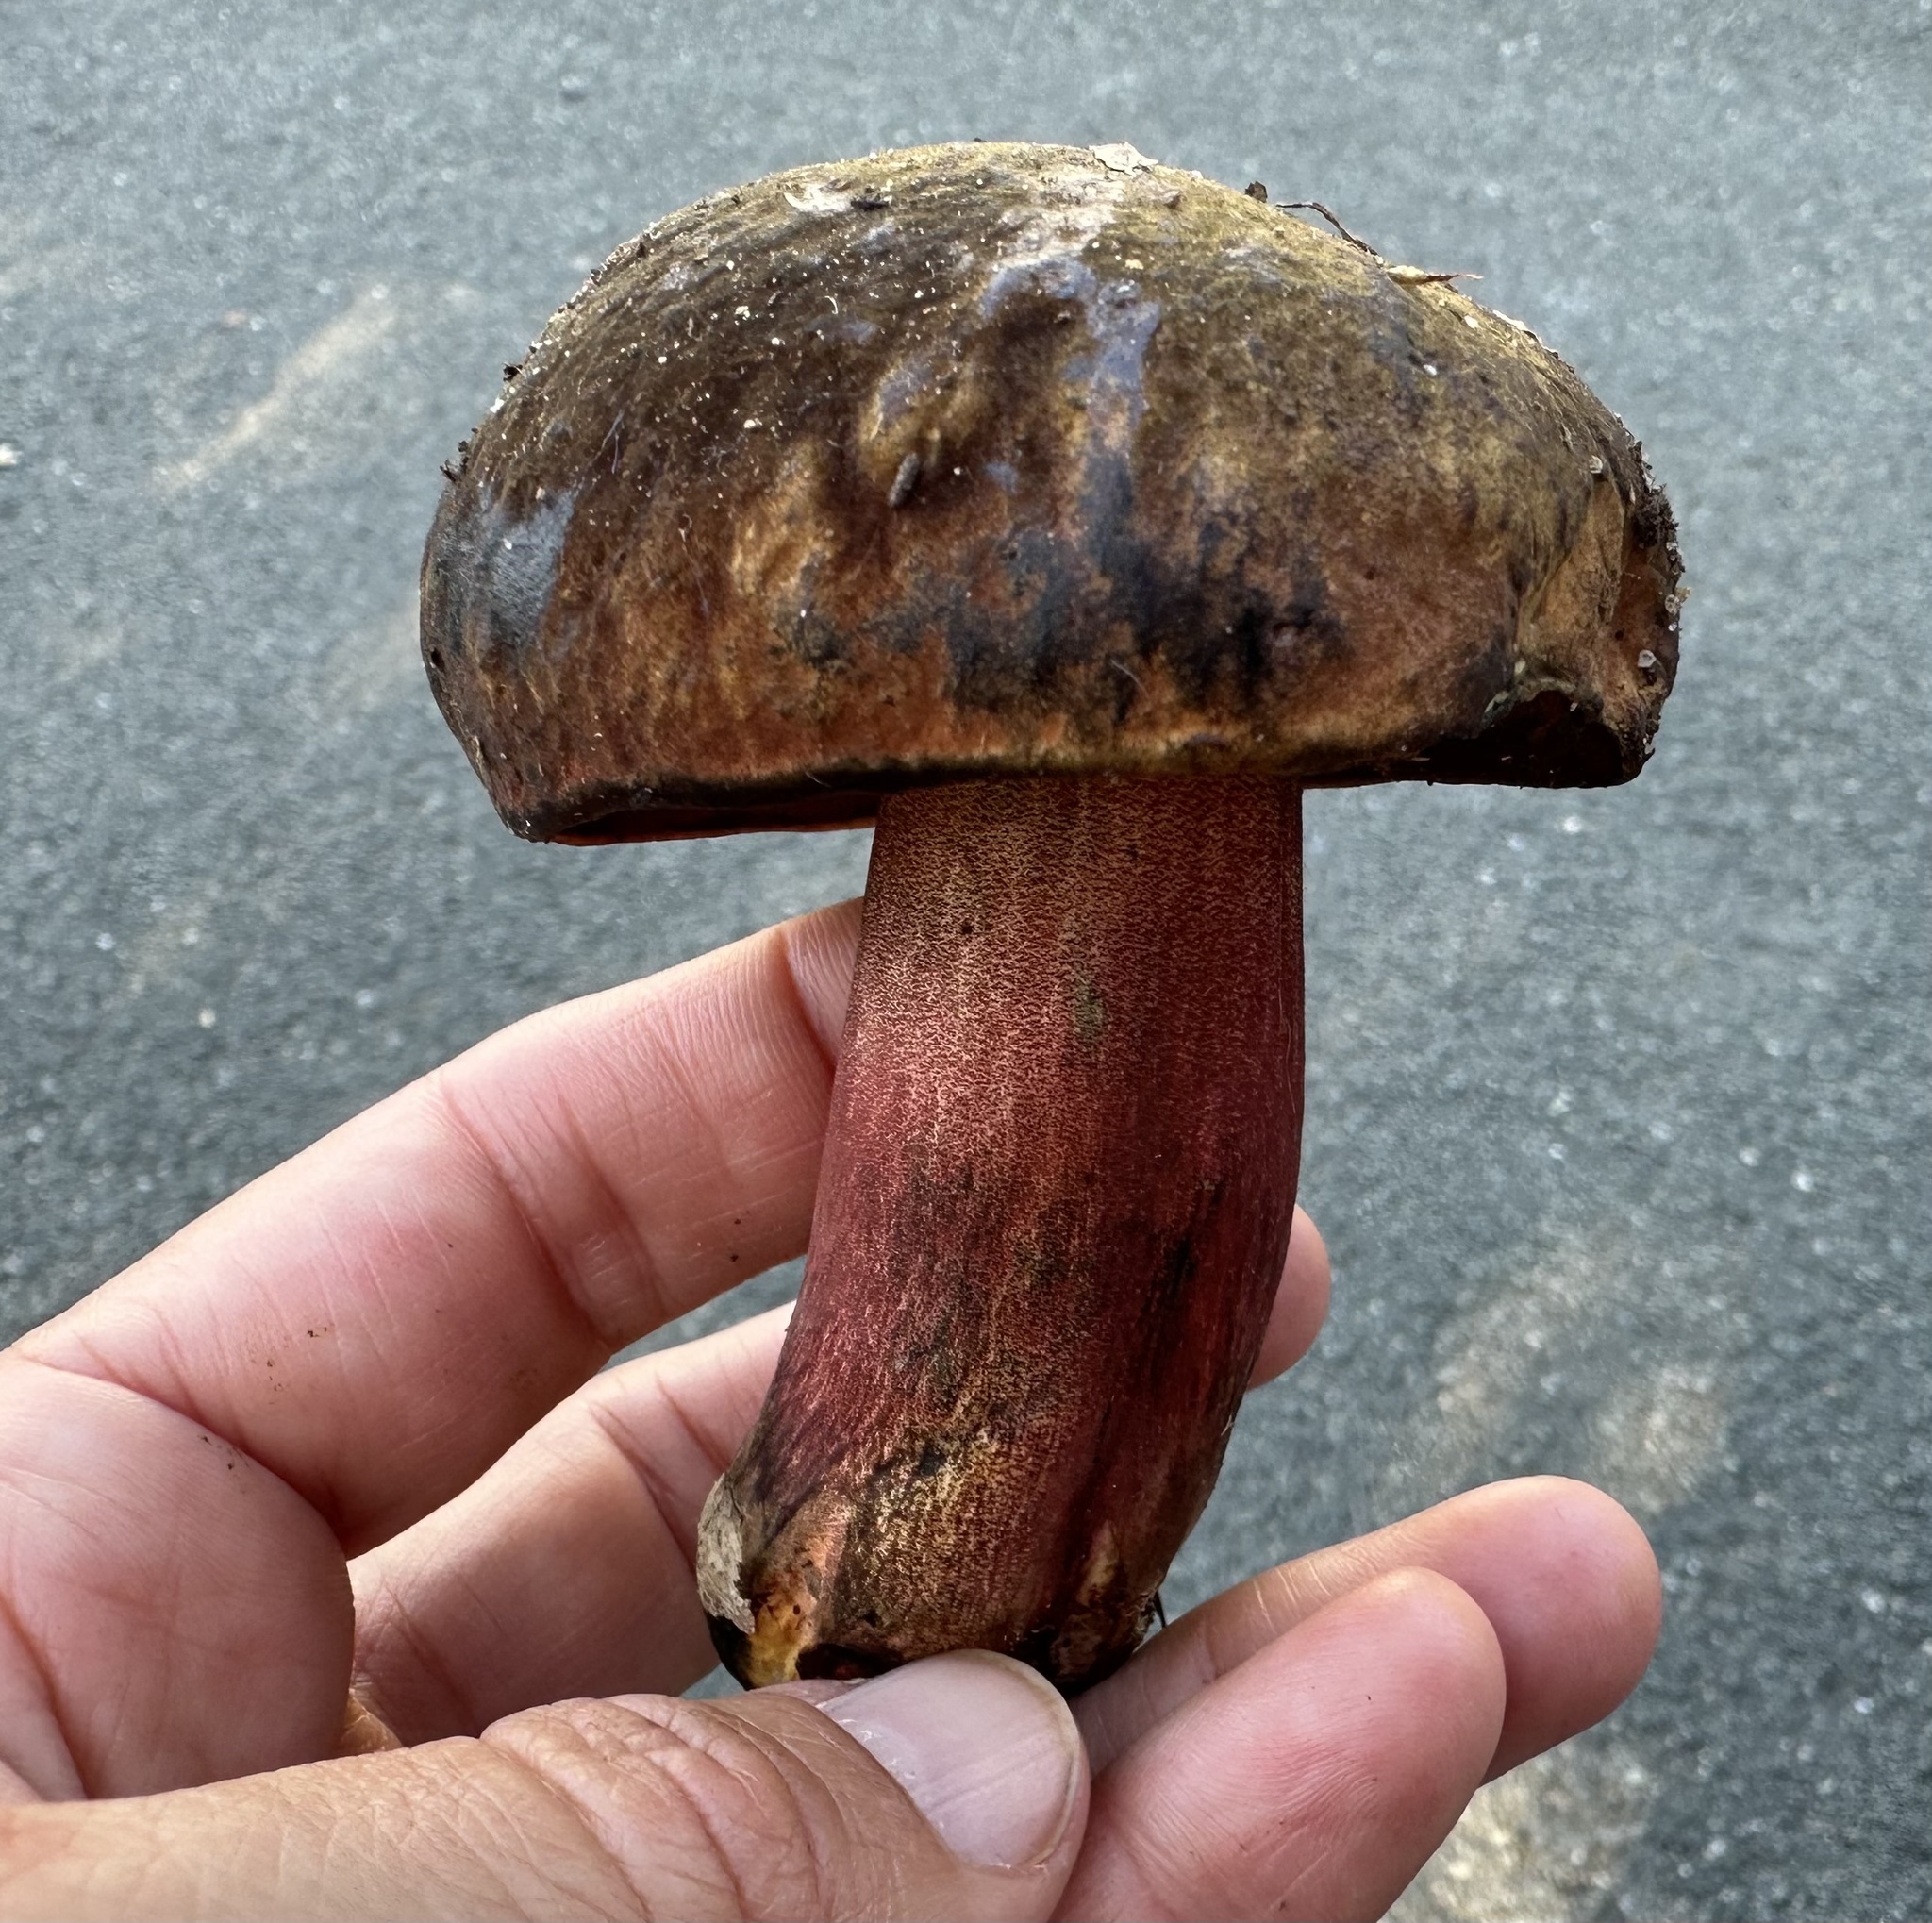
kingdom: Fungi
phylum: Basidiomycota
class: Agaricomycetes
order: Boletales
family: Boletaceae
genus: Neoboletus
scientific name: Neoboletus luridiformis
